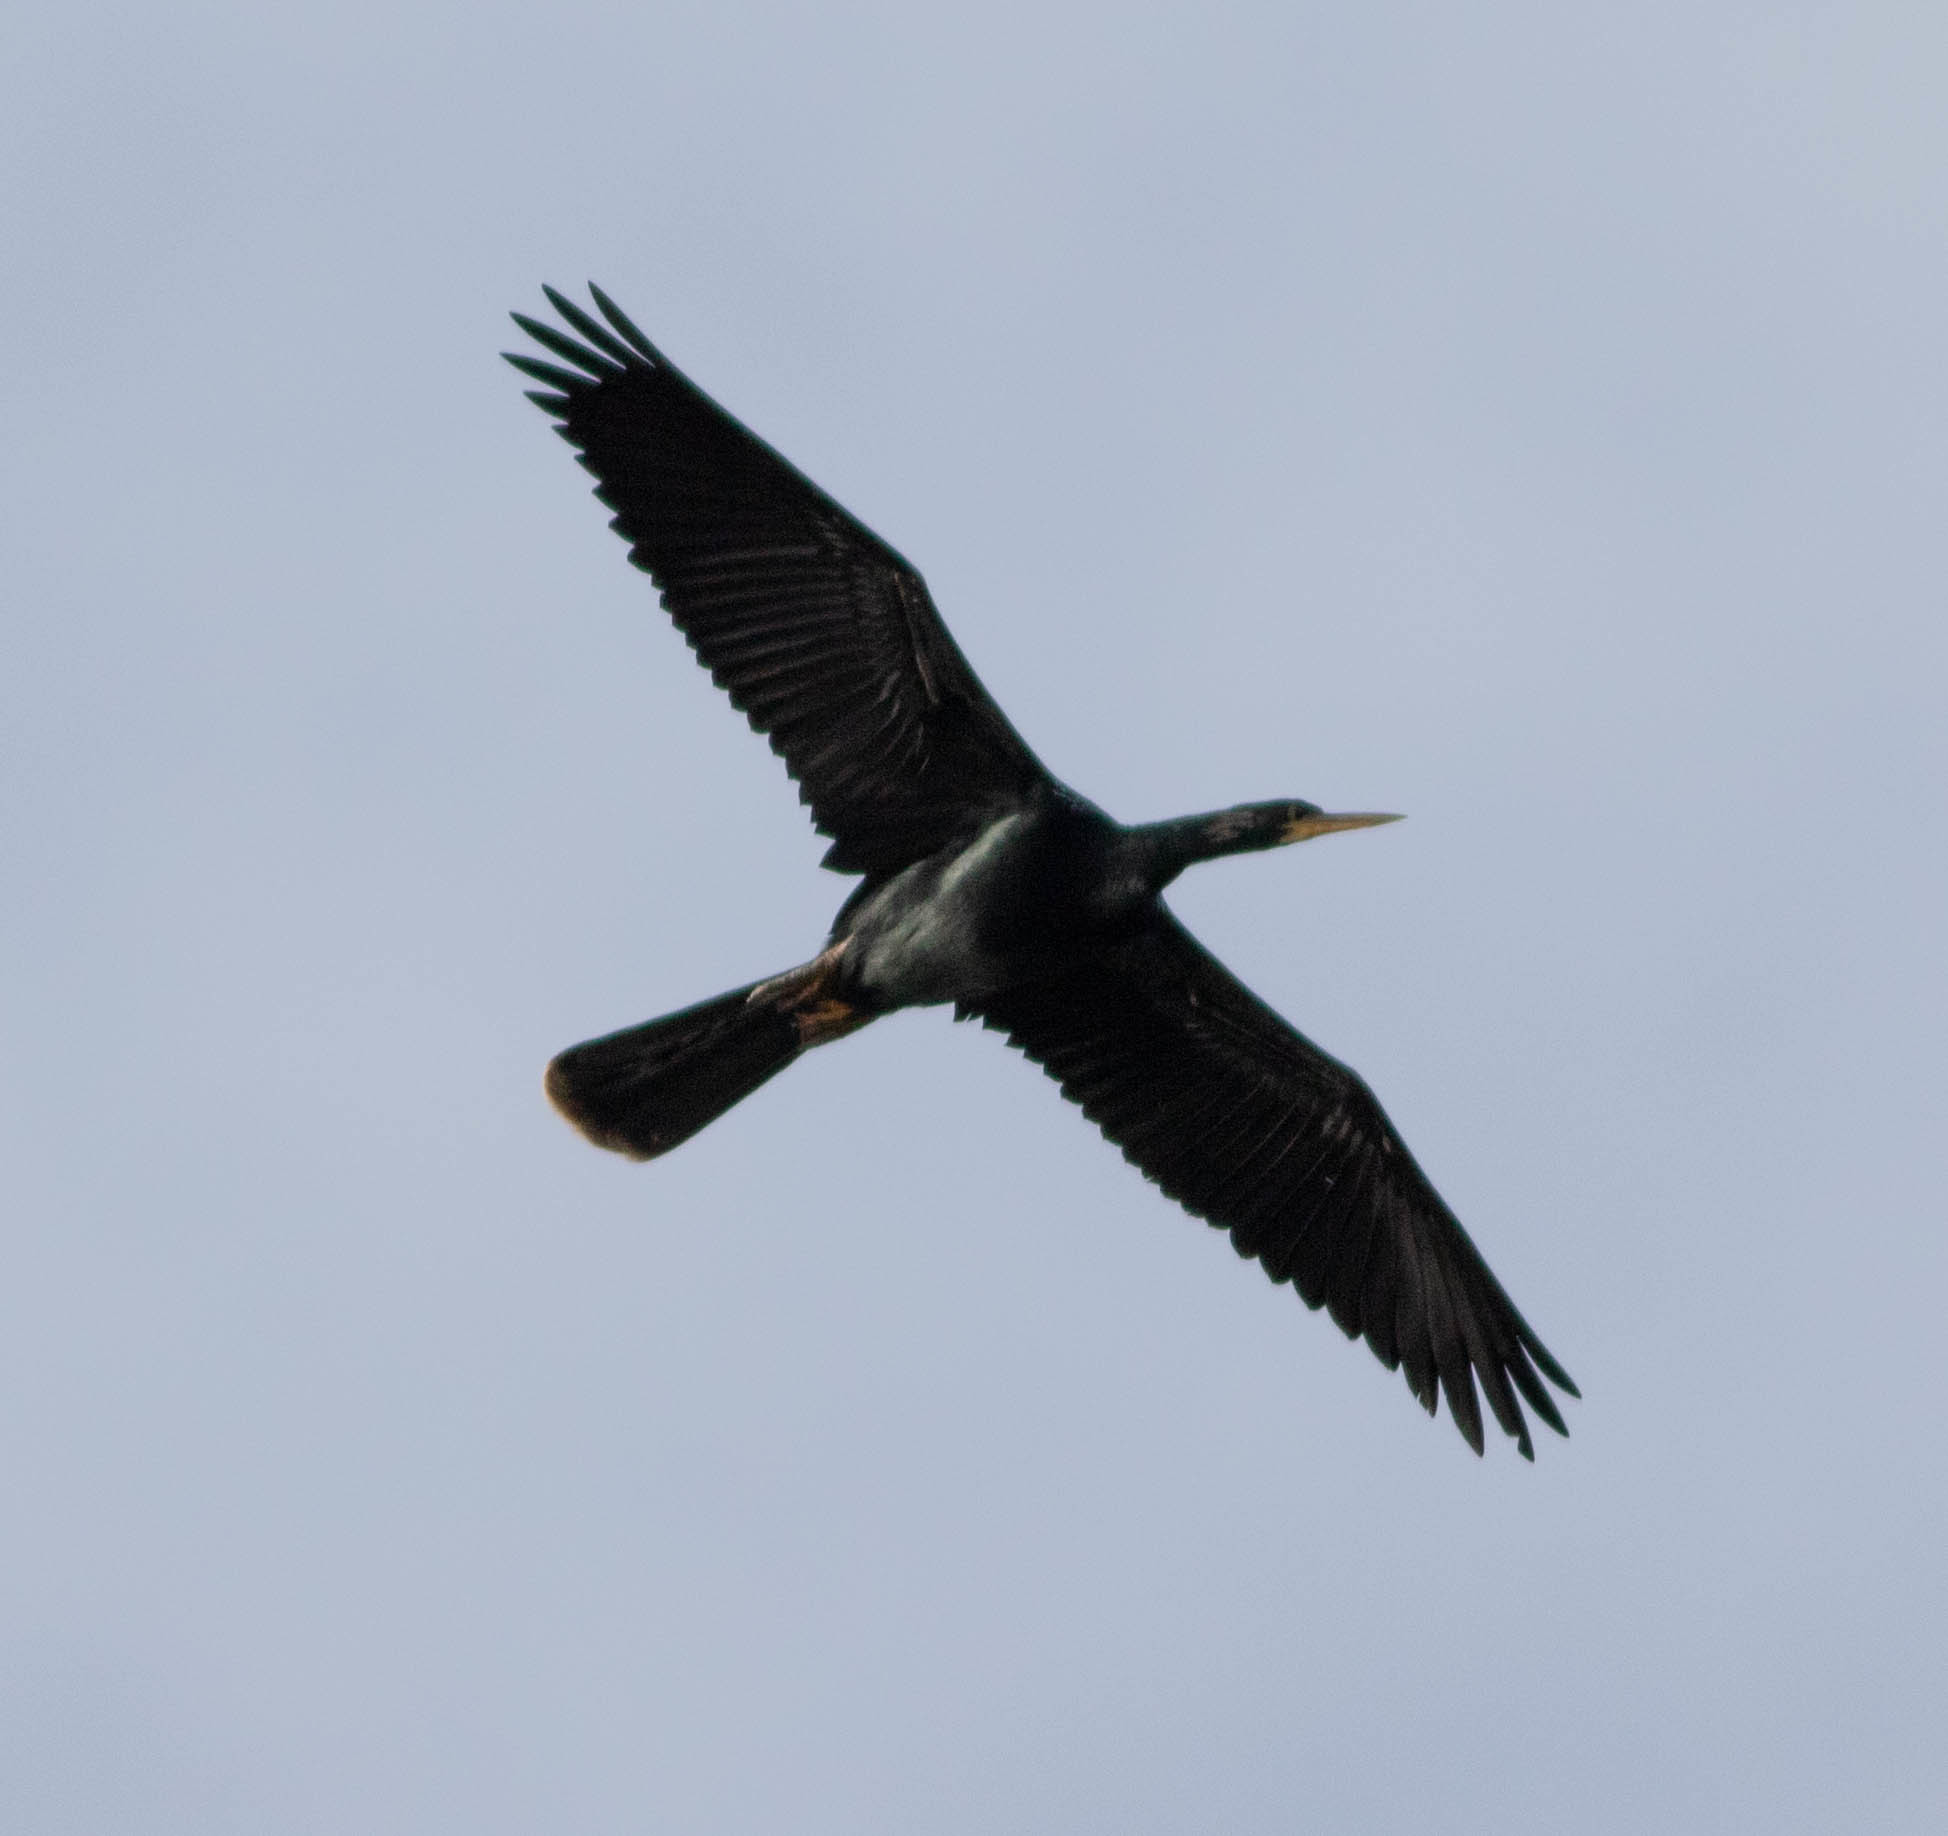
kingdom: Animalia
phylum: Chordata
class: Aves
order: Suliformes
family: Anhingidae
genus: Anhinga
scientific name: Anhinga anhinga
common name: Anhinga
